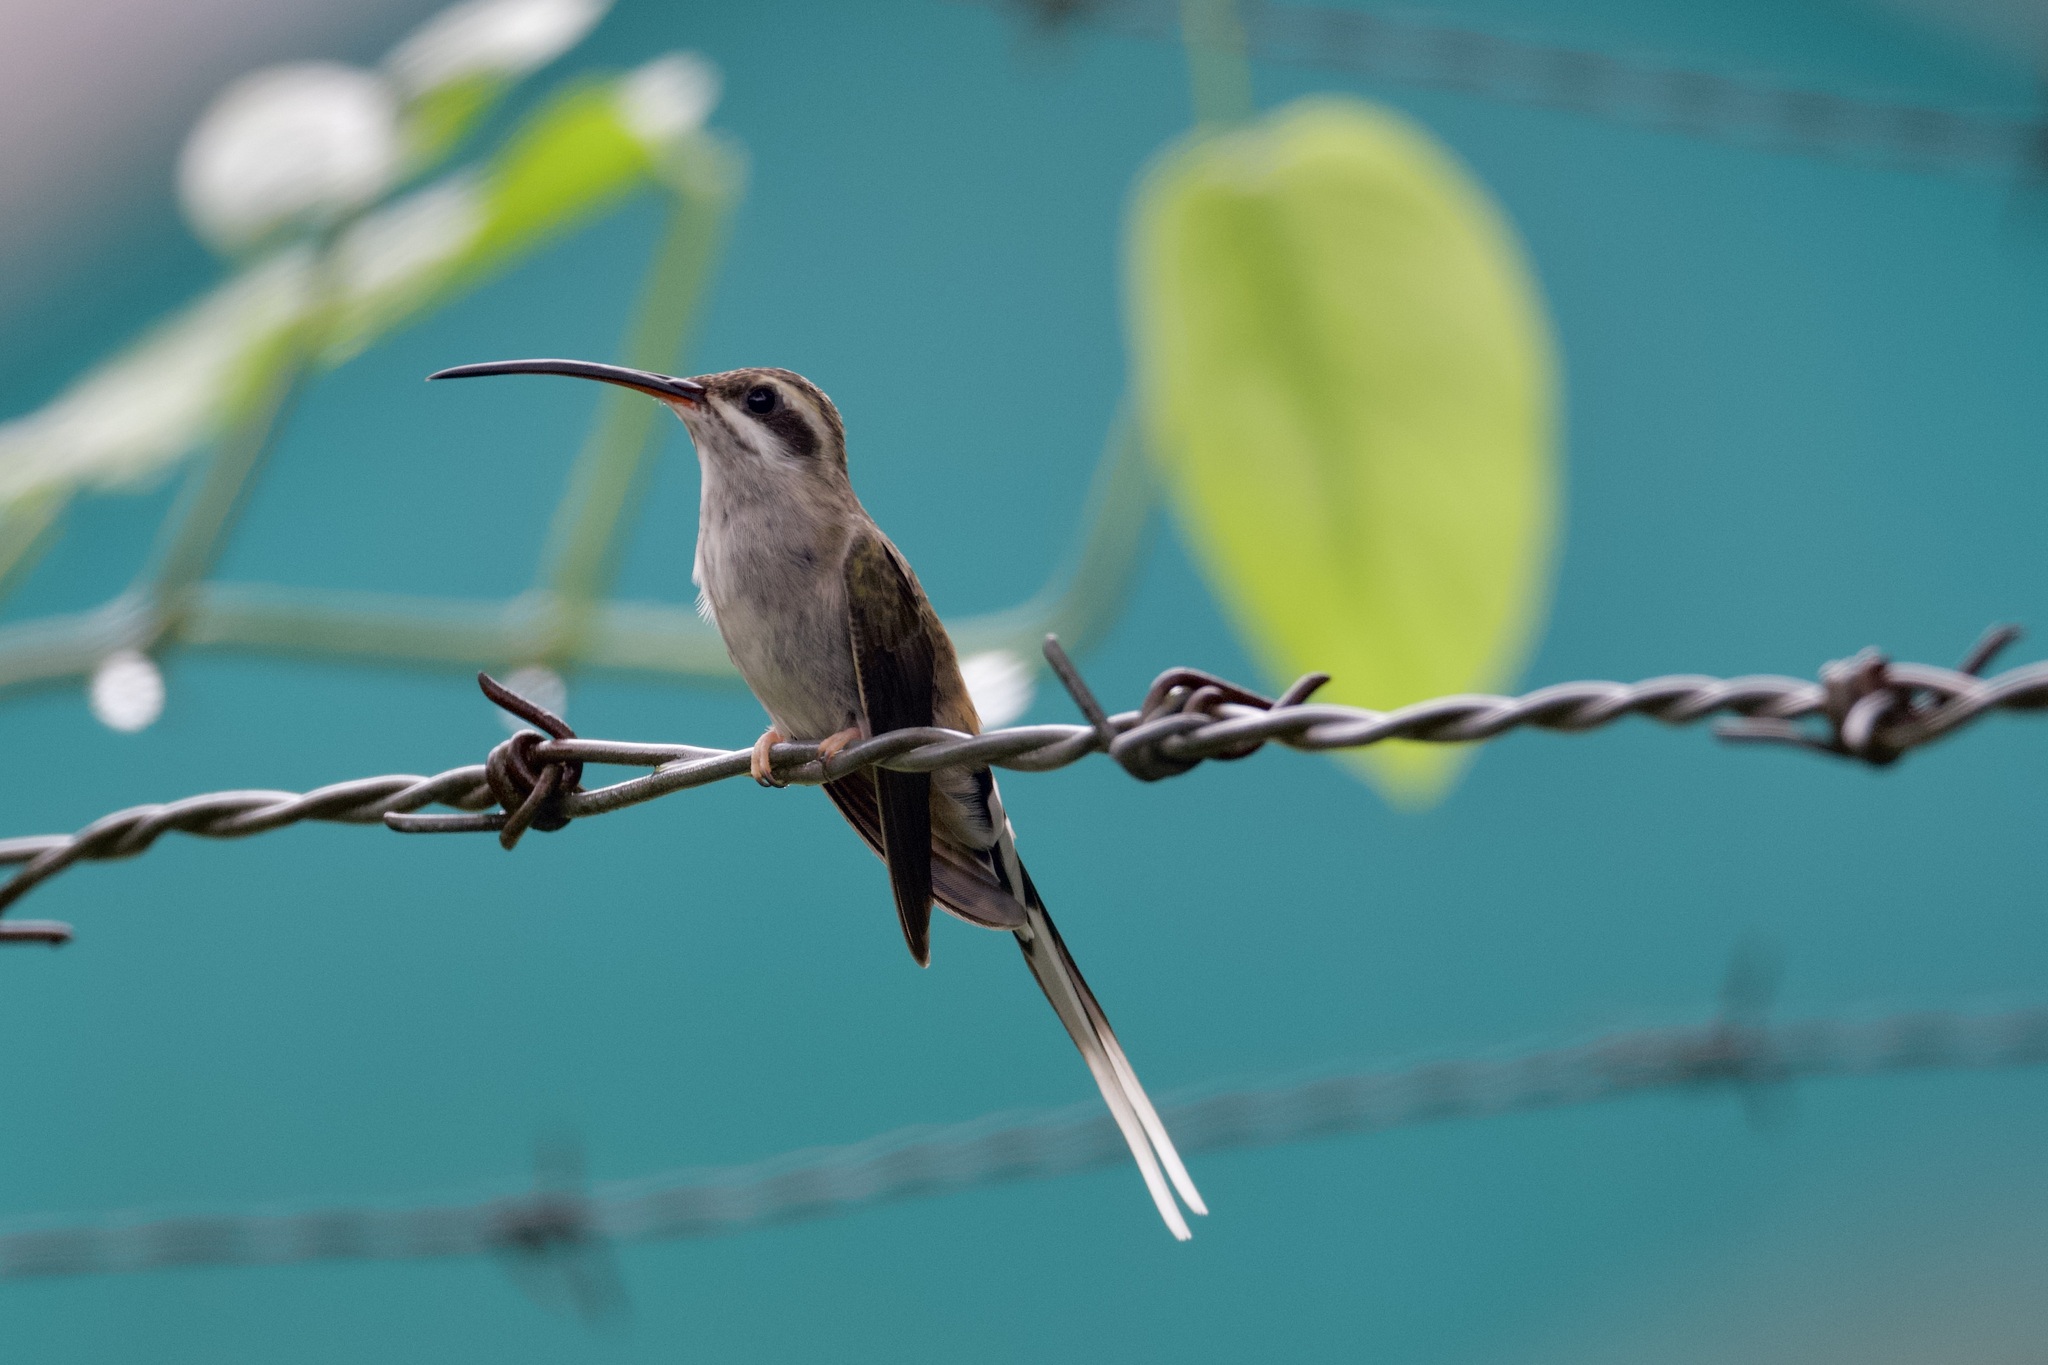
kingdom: Animalia
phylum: Chordata
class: Aves
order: Apodiformes
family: Trochilidae
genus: Phaethornis
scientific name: Phaethornis augusti
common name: Sooty-capped hermit
